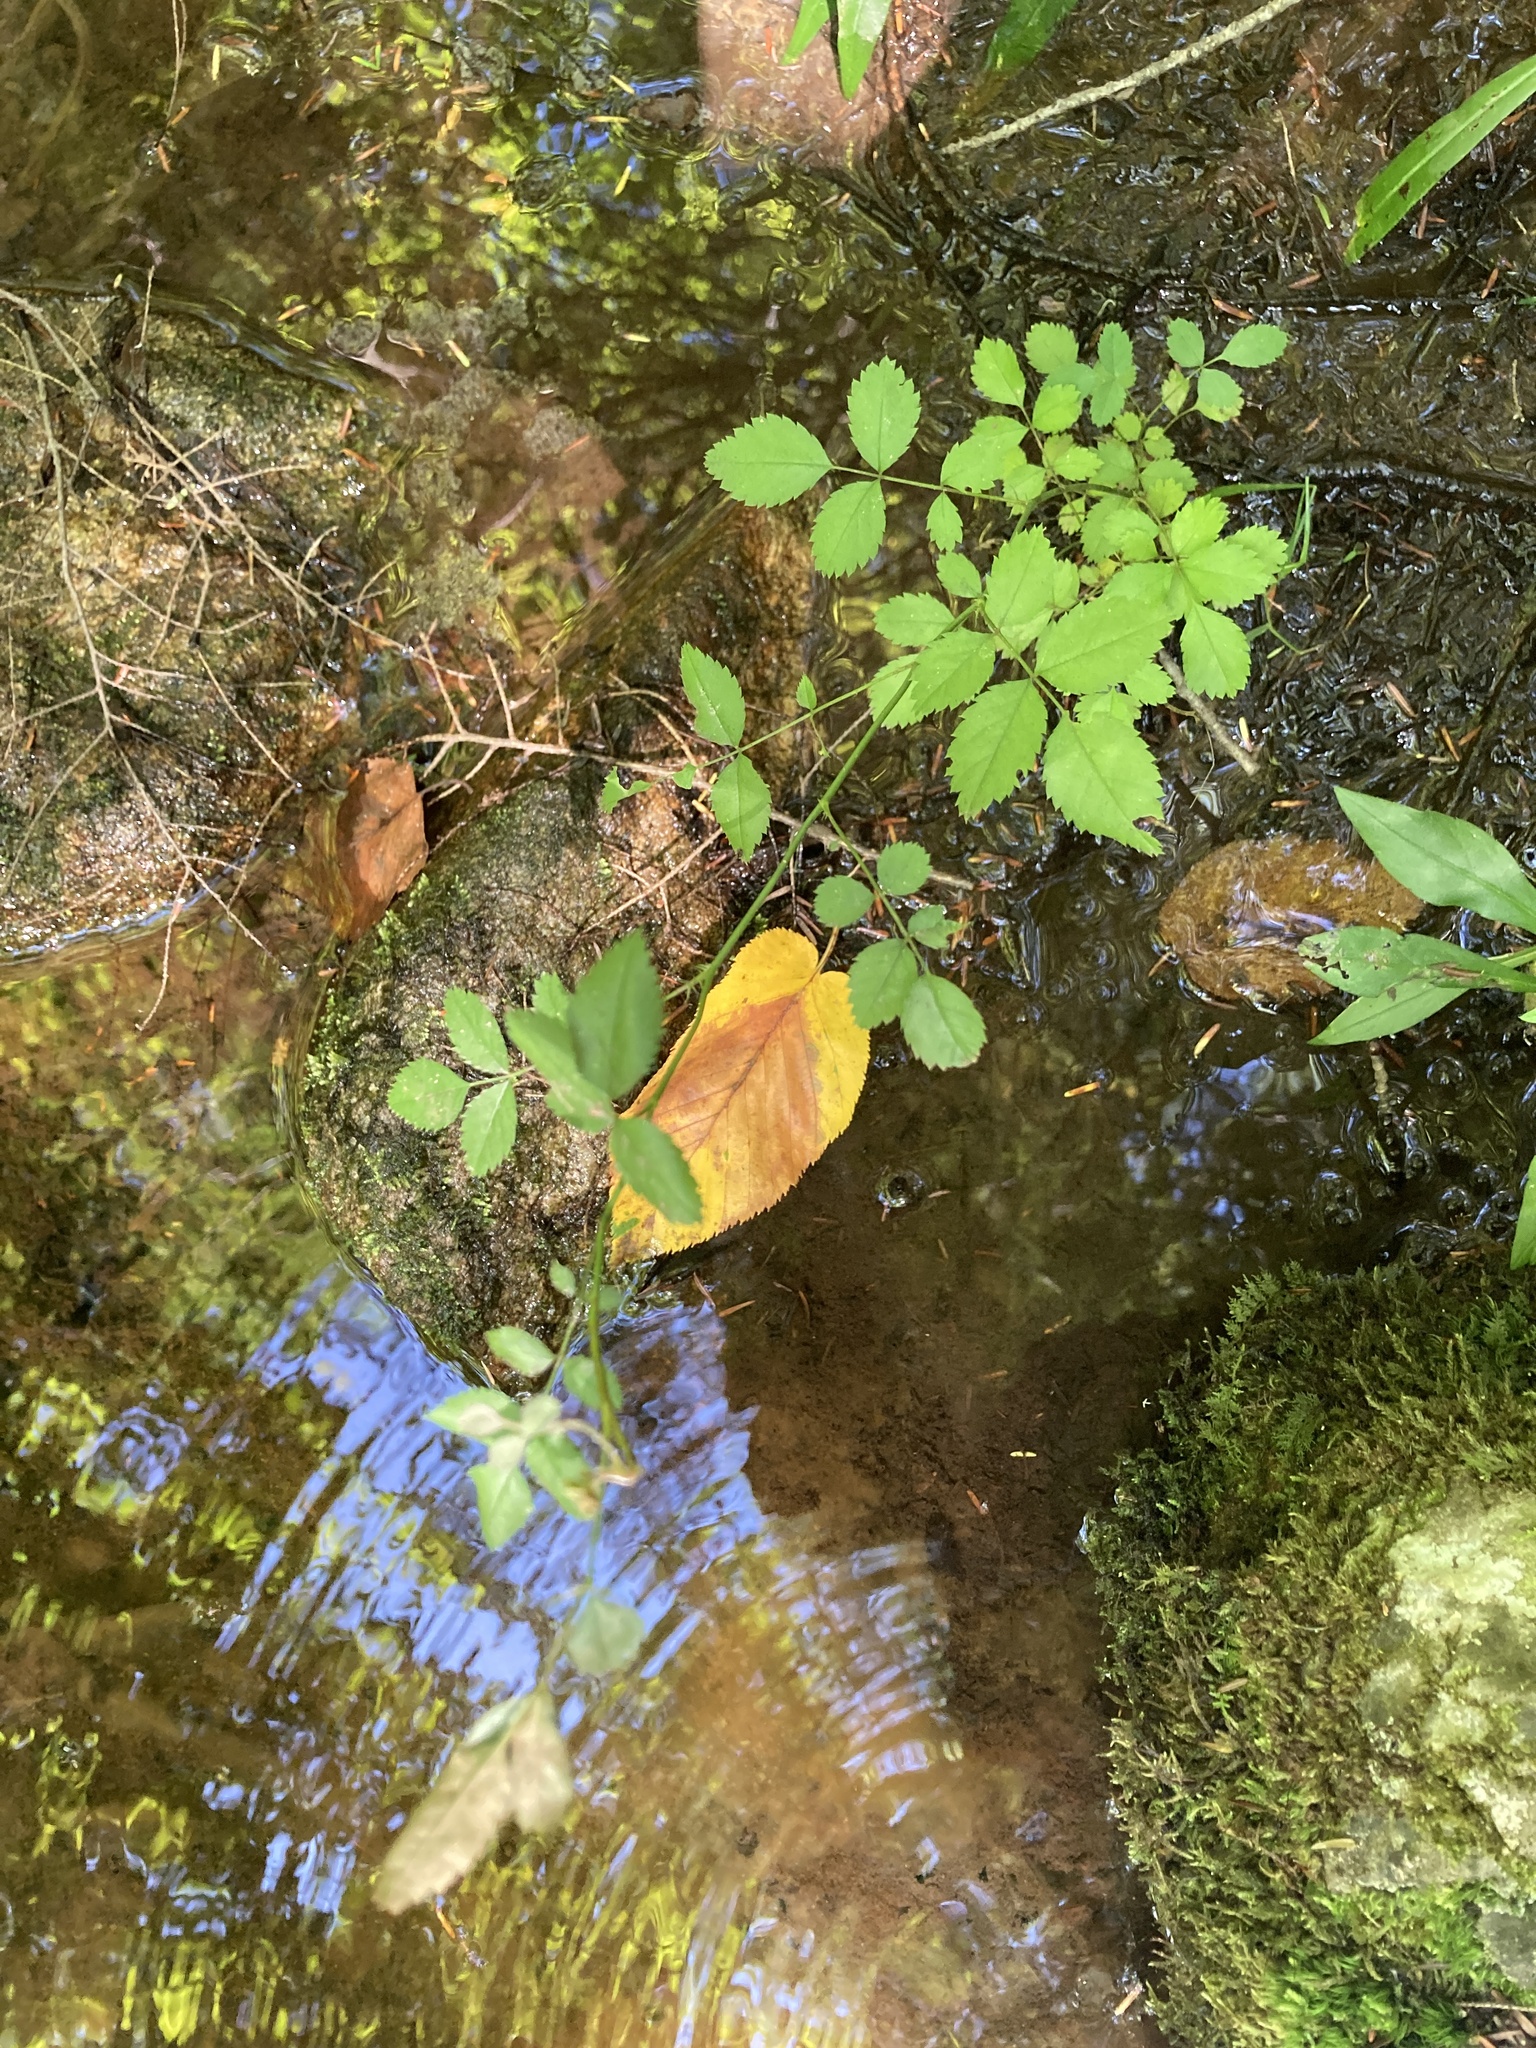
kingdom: Plantae
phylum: Tracheophyta
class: Magnoliopsida
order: Rosales
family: Rosaceae
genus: Rosa
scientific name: Rosa multiflora
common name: Multiflora rose
